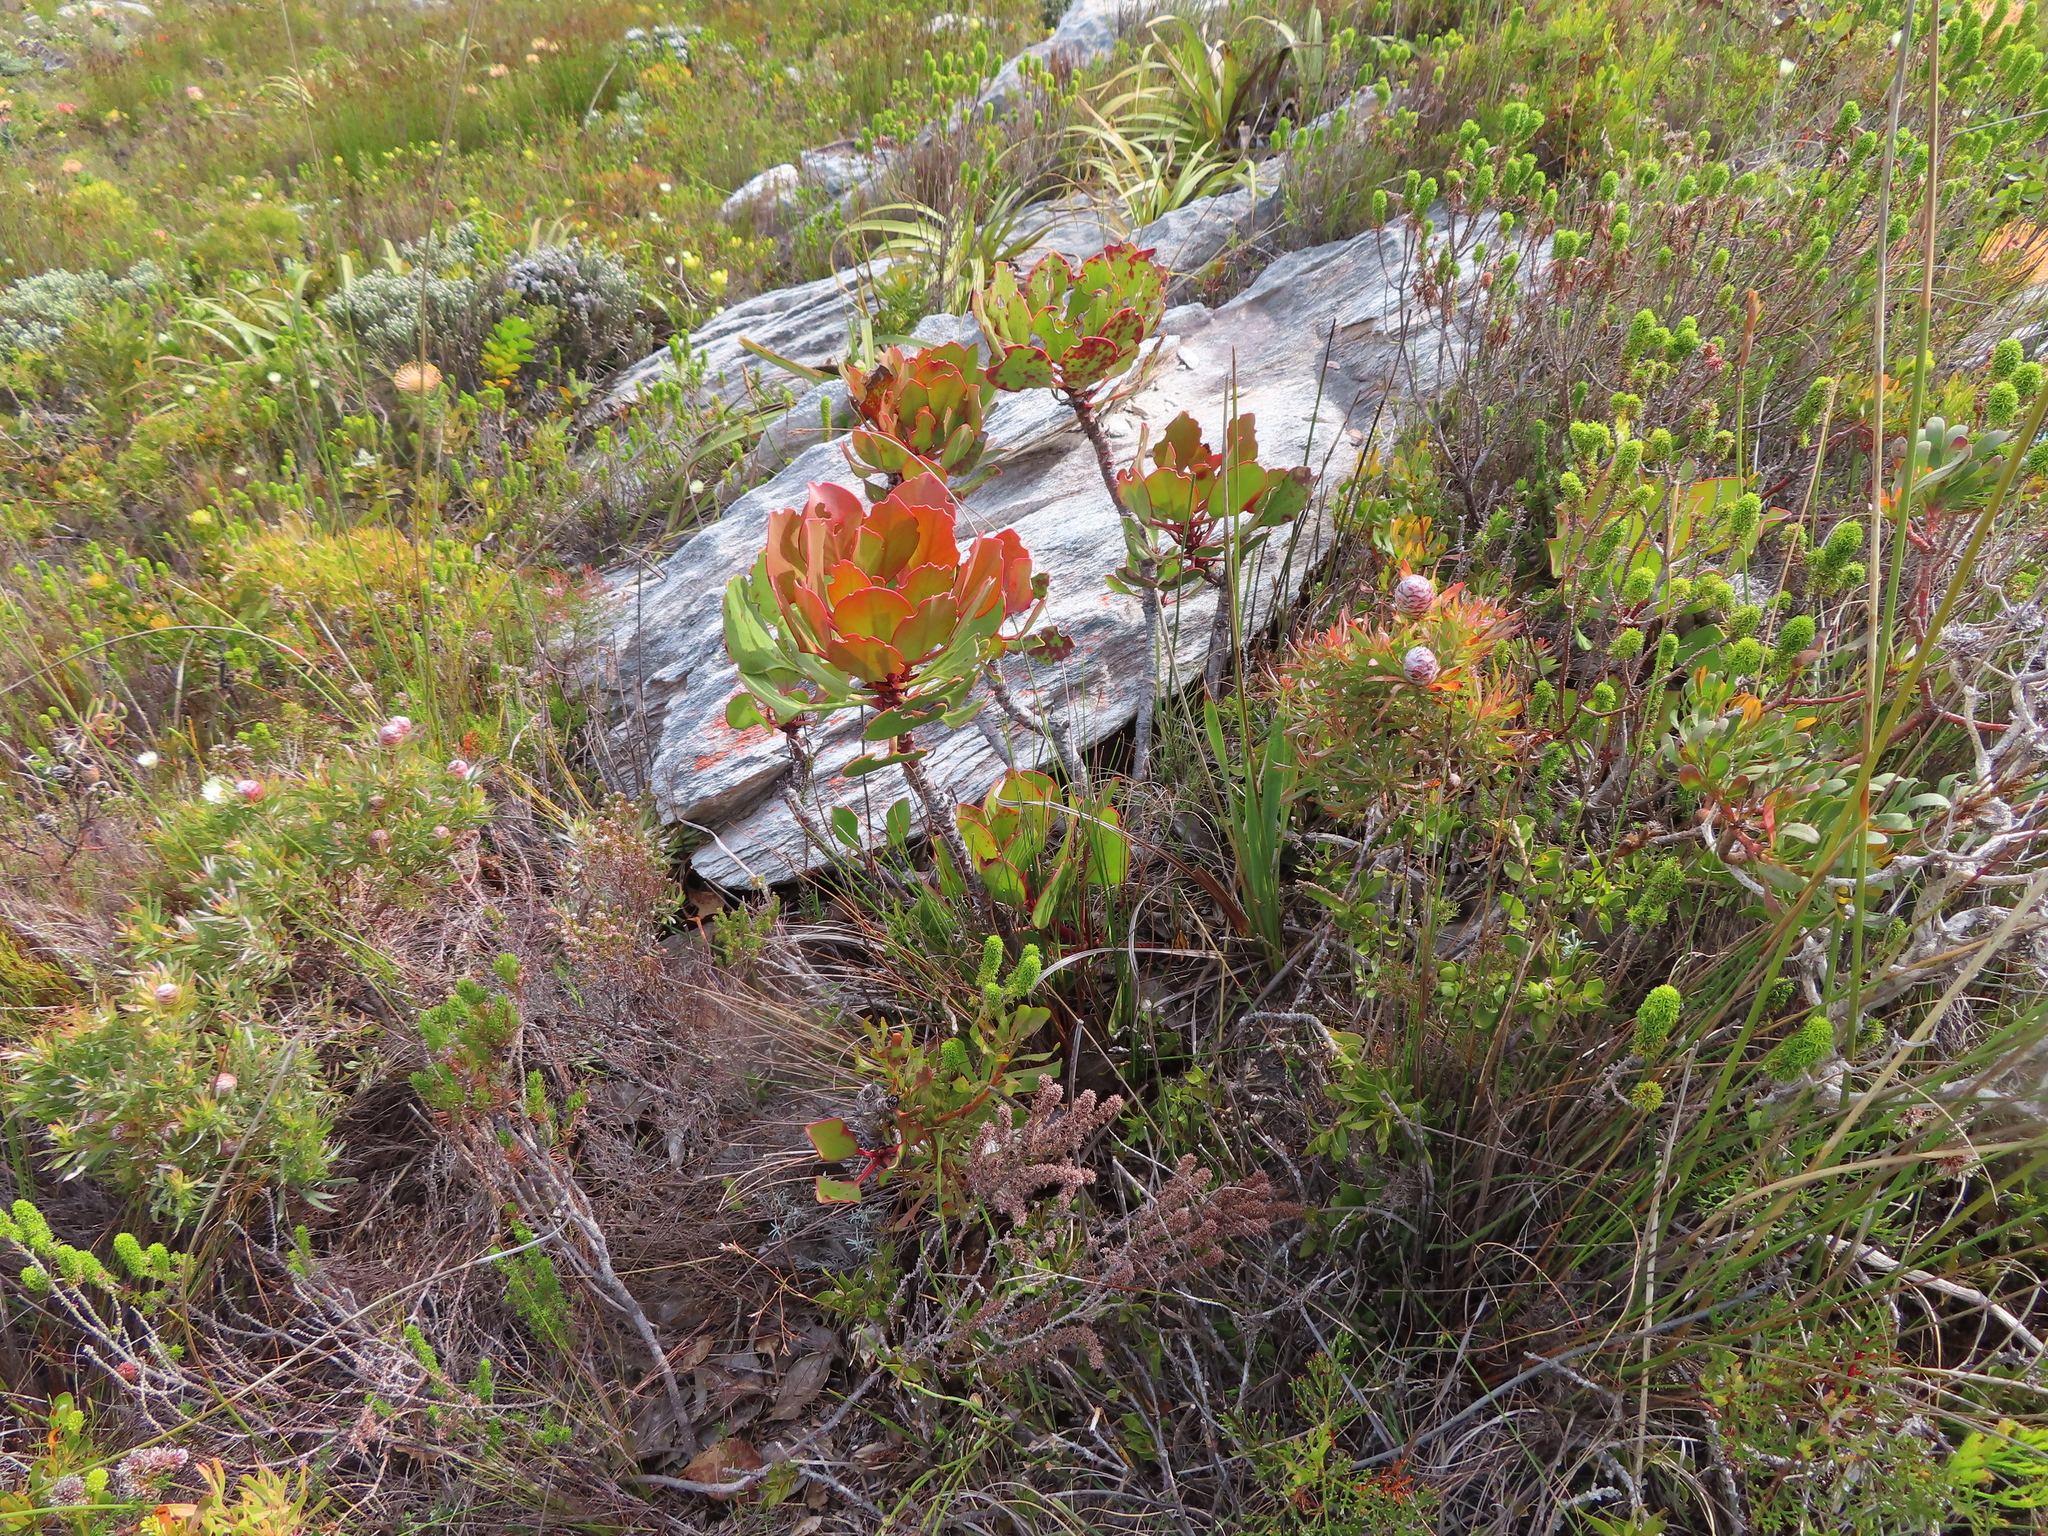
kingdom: Plantae
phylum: Tracheophyta
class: Magnoliopsida
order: Proteales
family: Proteaceae
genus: Protea
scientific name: Protea cynaroides
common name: King protea
